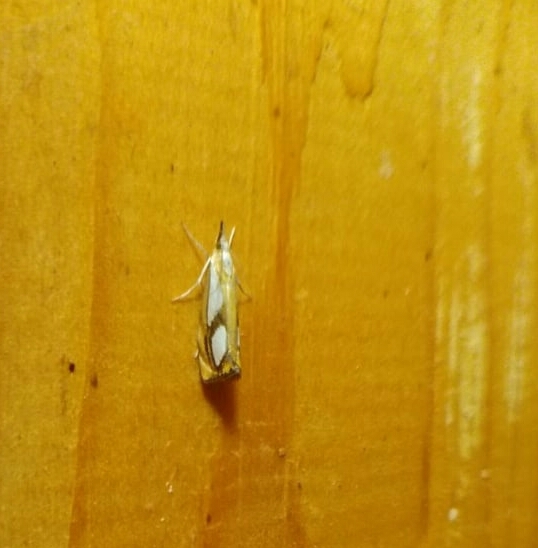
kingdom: Animalia
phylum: Arthropoda
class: Insecta
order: Lepidoptera
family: Crambidae
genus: Catoptria
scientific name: Catoptria pinella
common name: Pearl grass-veneer
